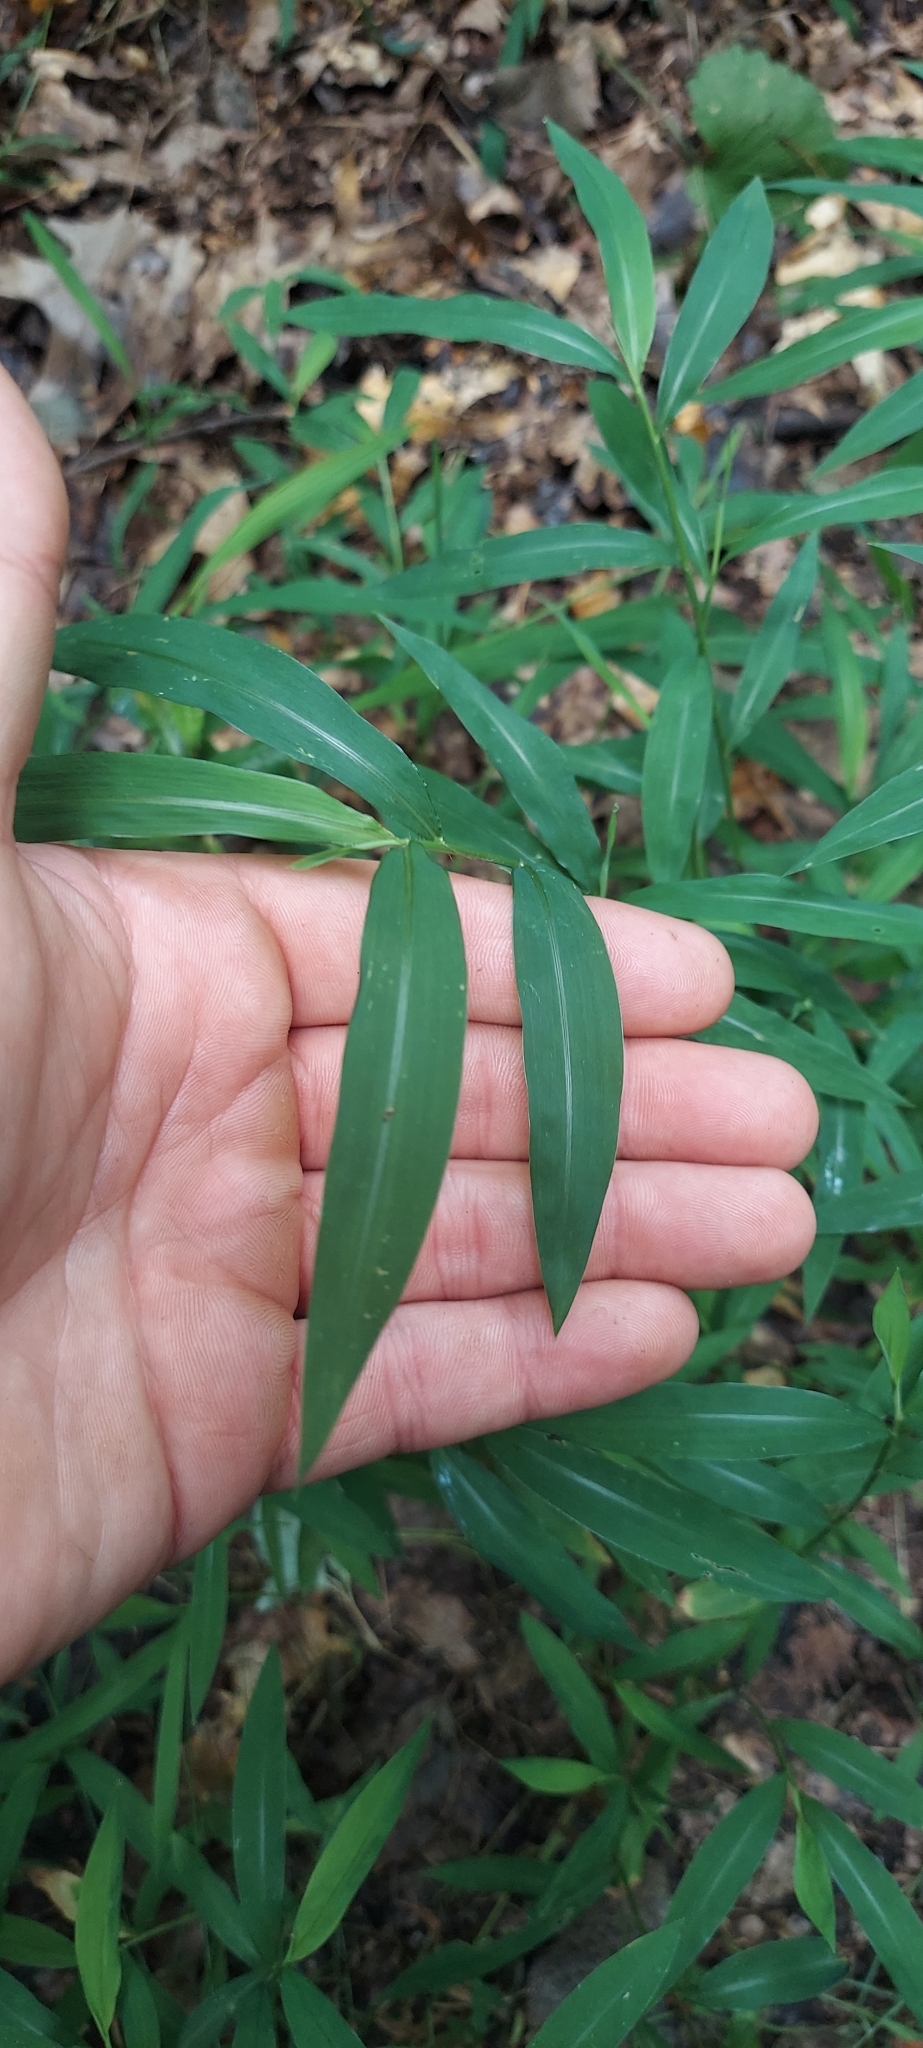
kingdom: Plantae
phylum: Tracheophyta
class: Liliopsida
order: Poales
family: Poaceae
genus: Microstegium
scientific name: Microstegium vimineum
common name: Japanese stiltgrass
